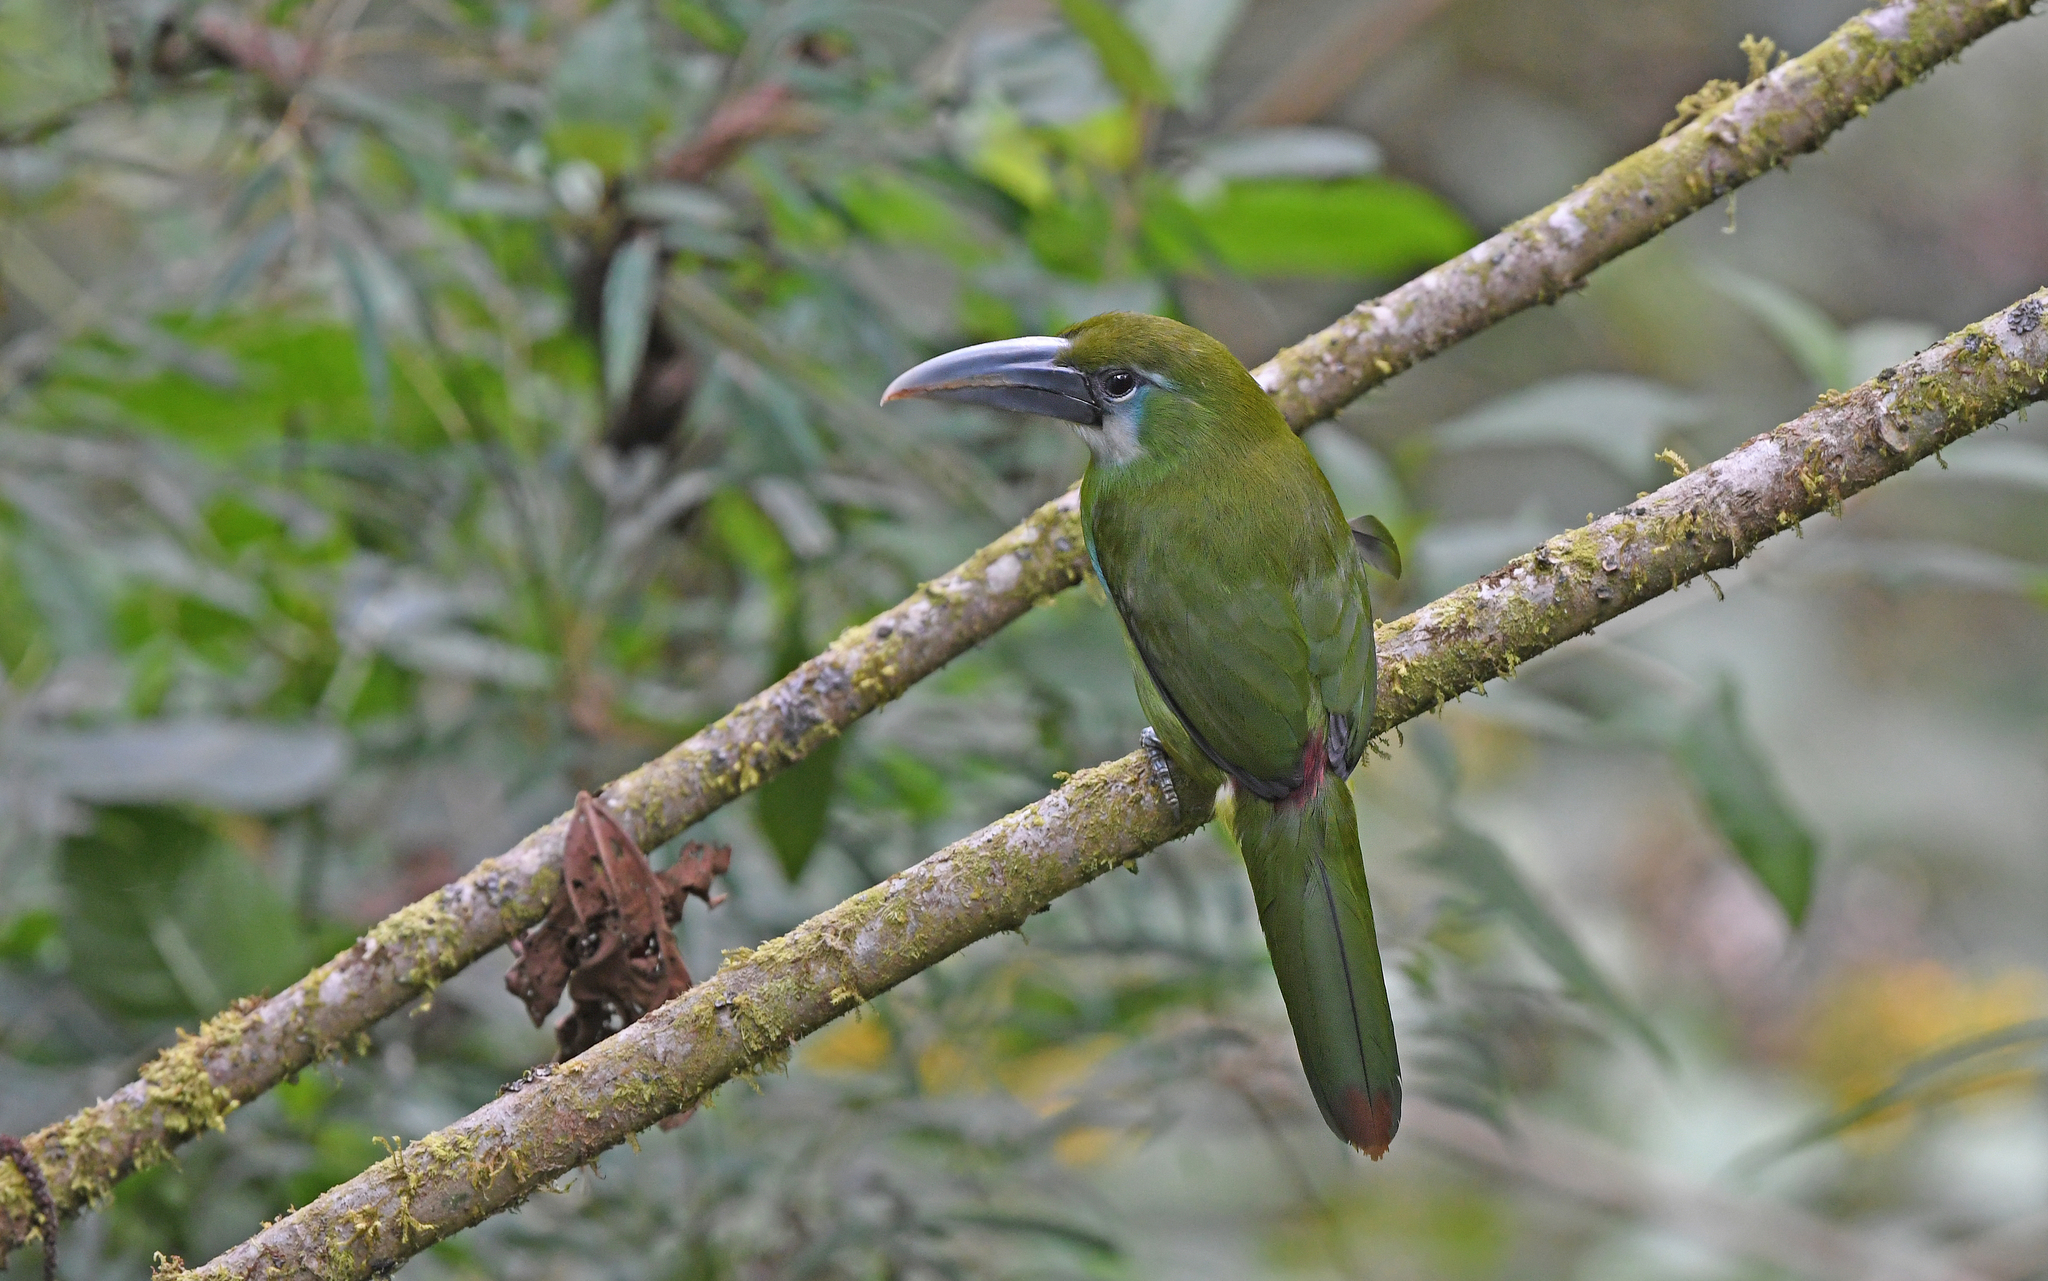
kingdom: Animalia
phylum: Chordata
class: Aves
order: Piciformes
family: Ramphastidae
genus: Aulacorhynchus
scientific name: Aulacorhynchus coeruleicinctis
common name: Blue-banded toucanet
